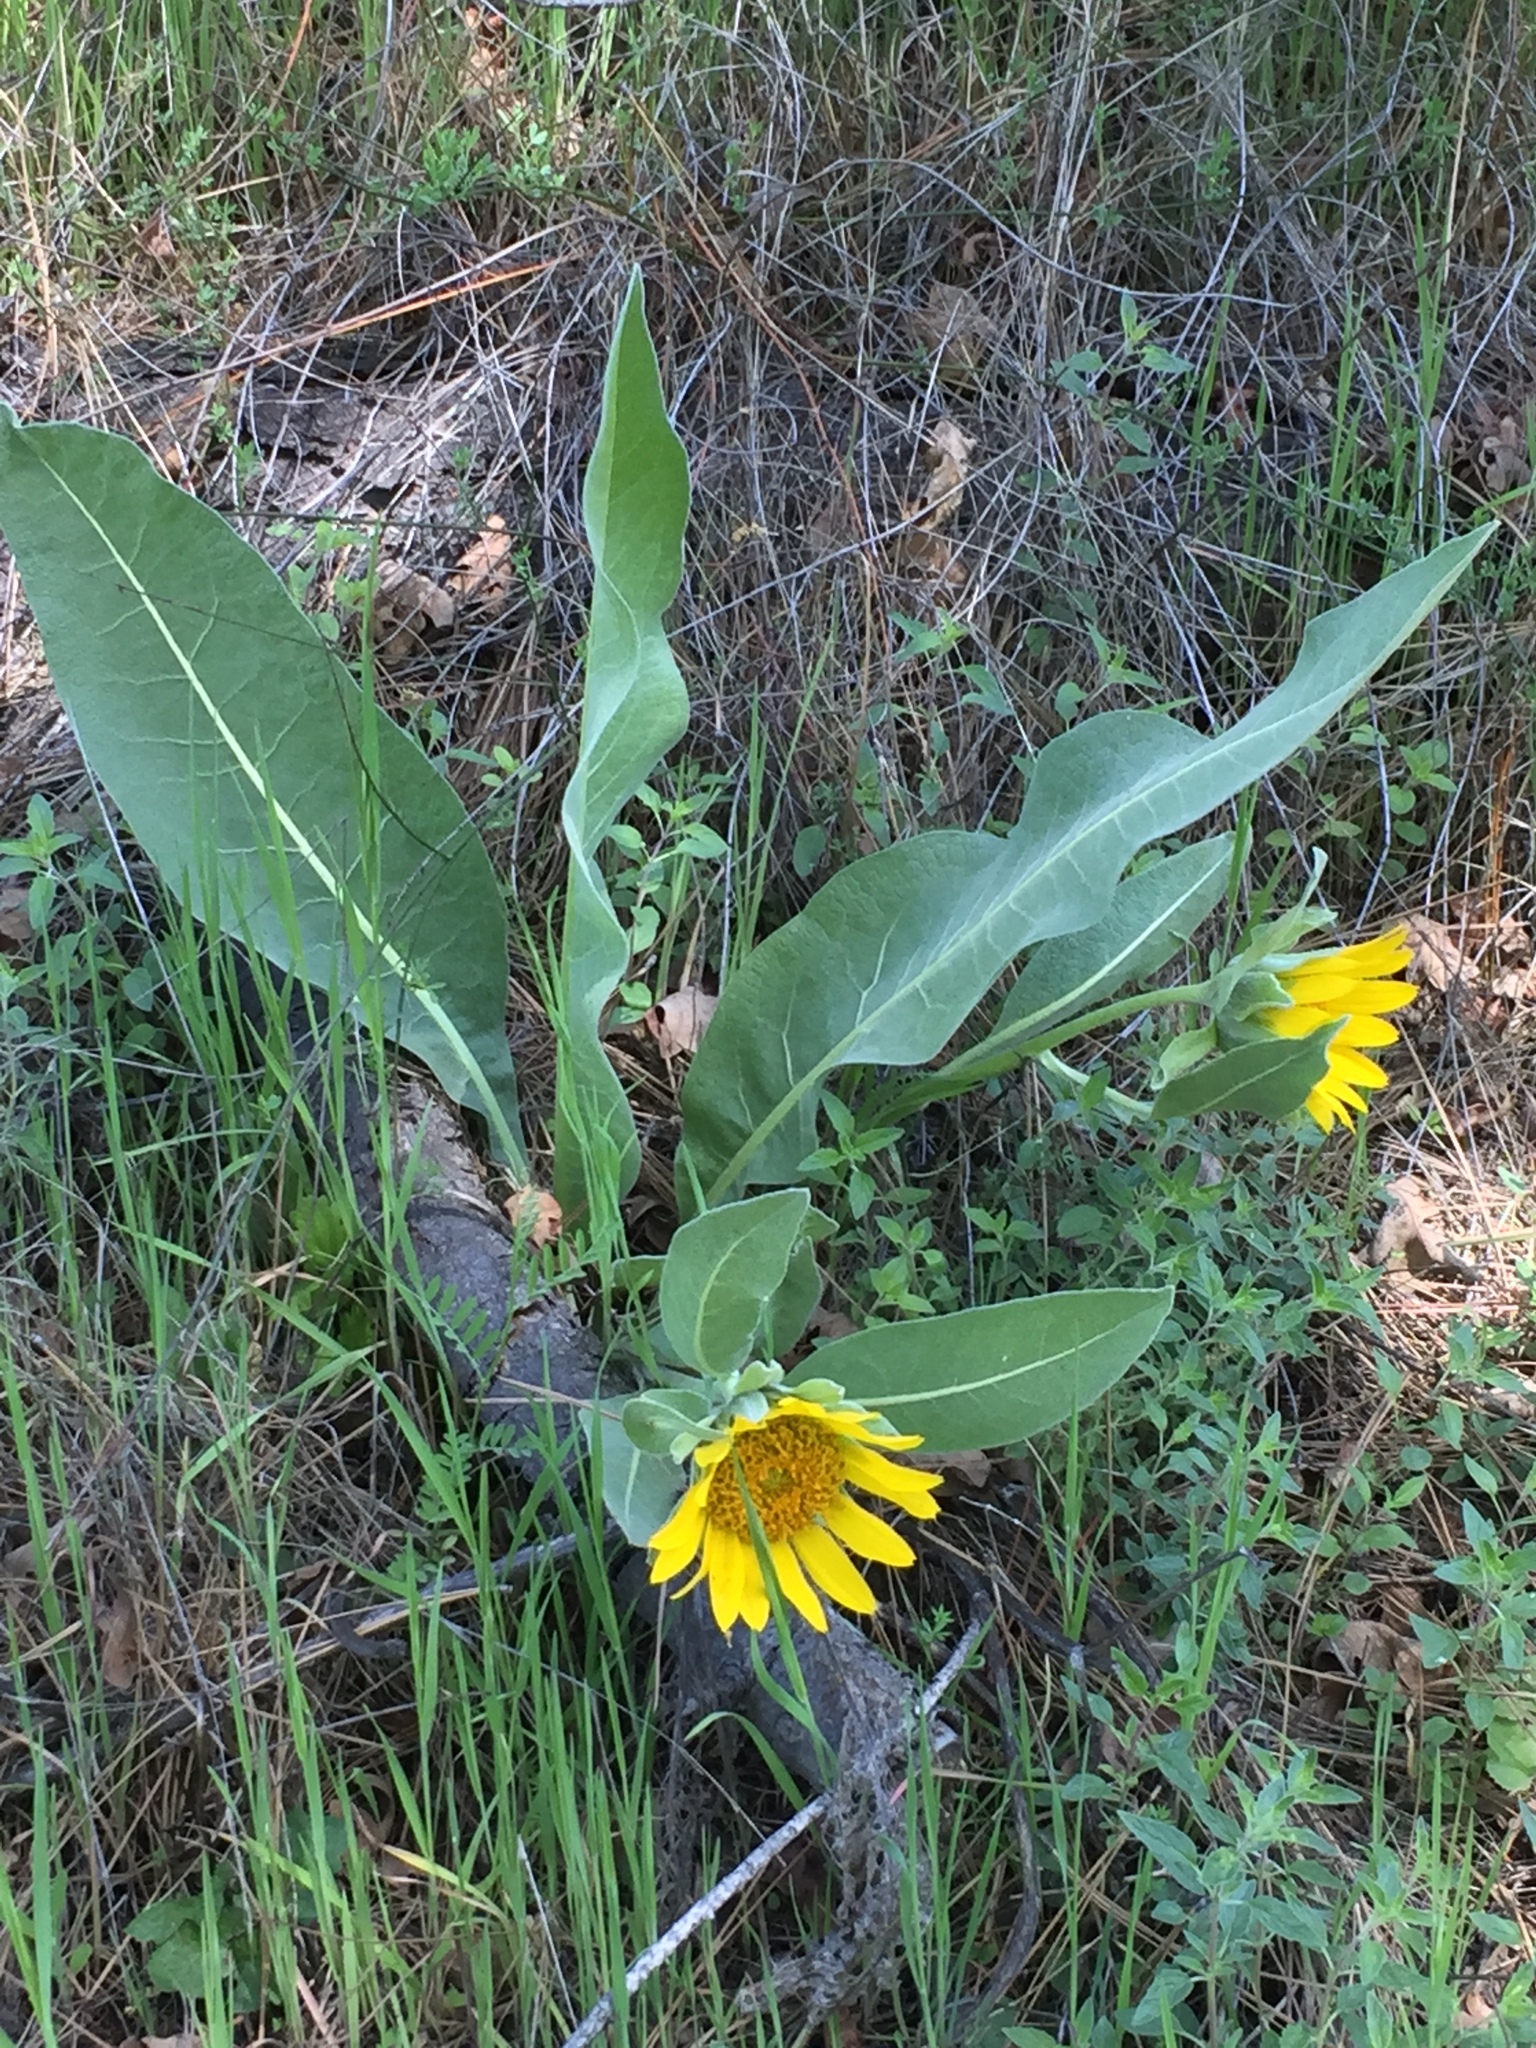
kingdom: Plantae
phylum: Tracheophyta
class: Magnoliopsida
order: Asterales
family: Asteraceae
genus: Wyethia
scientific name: Wyethia helenioides
